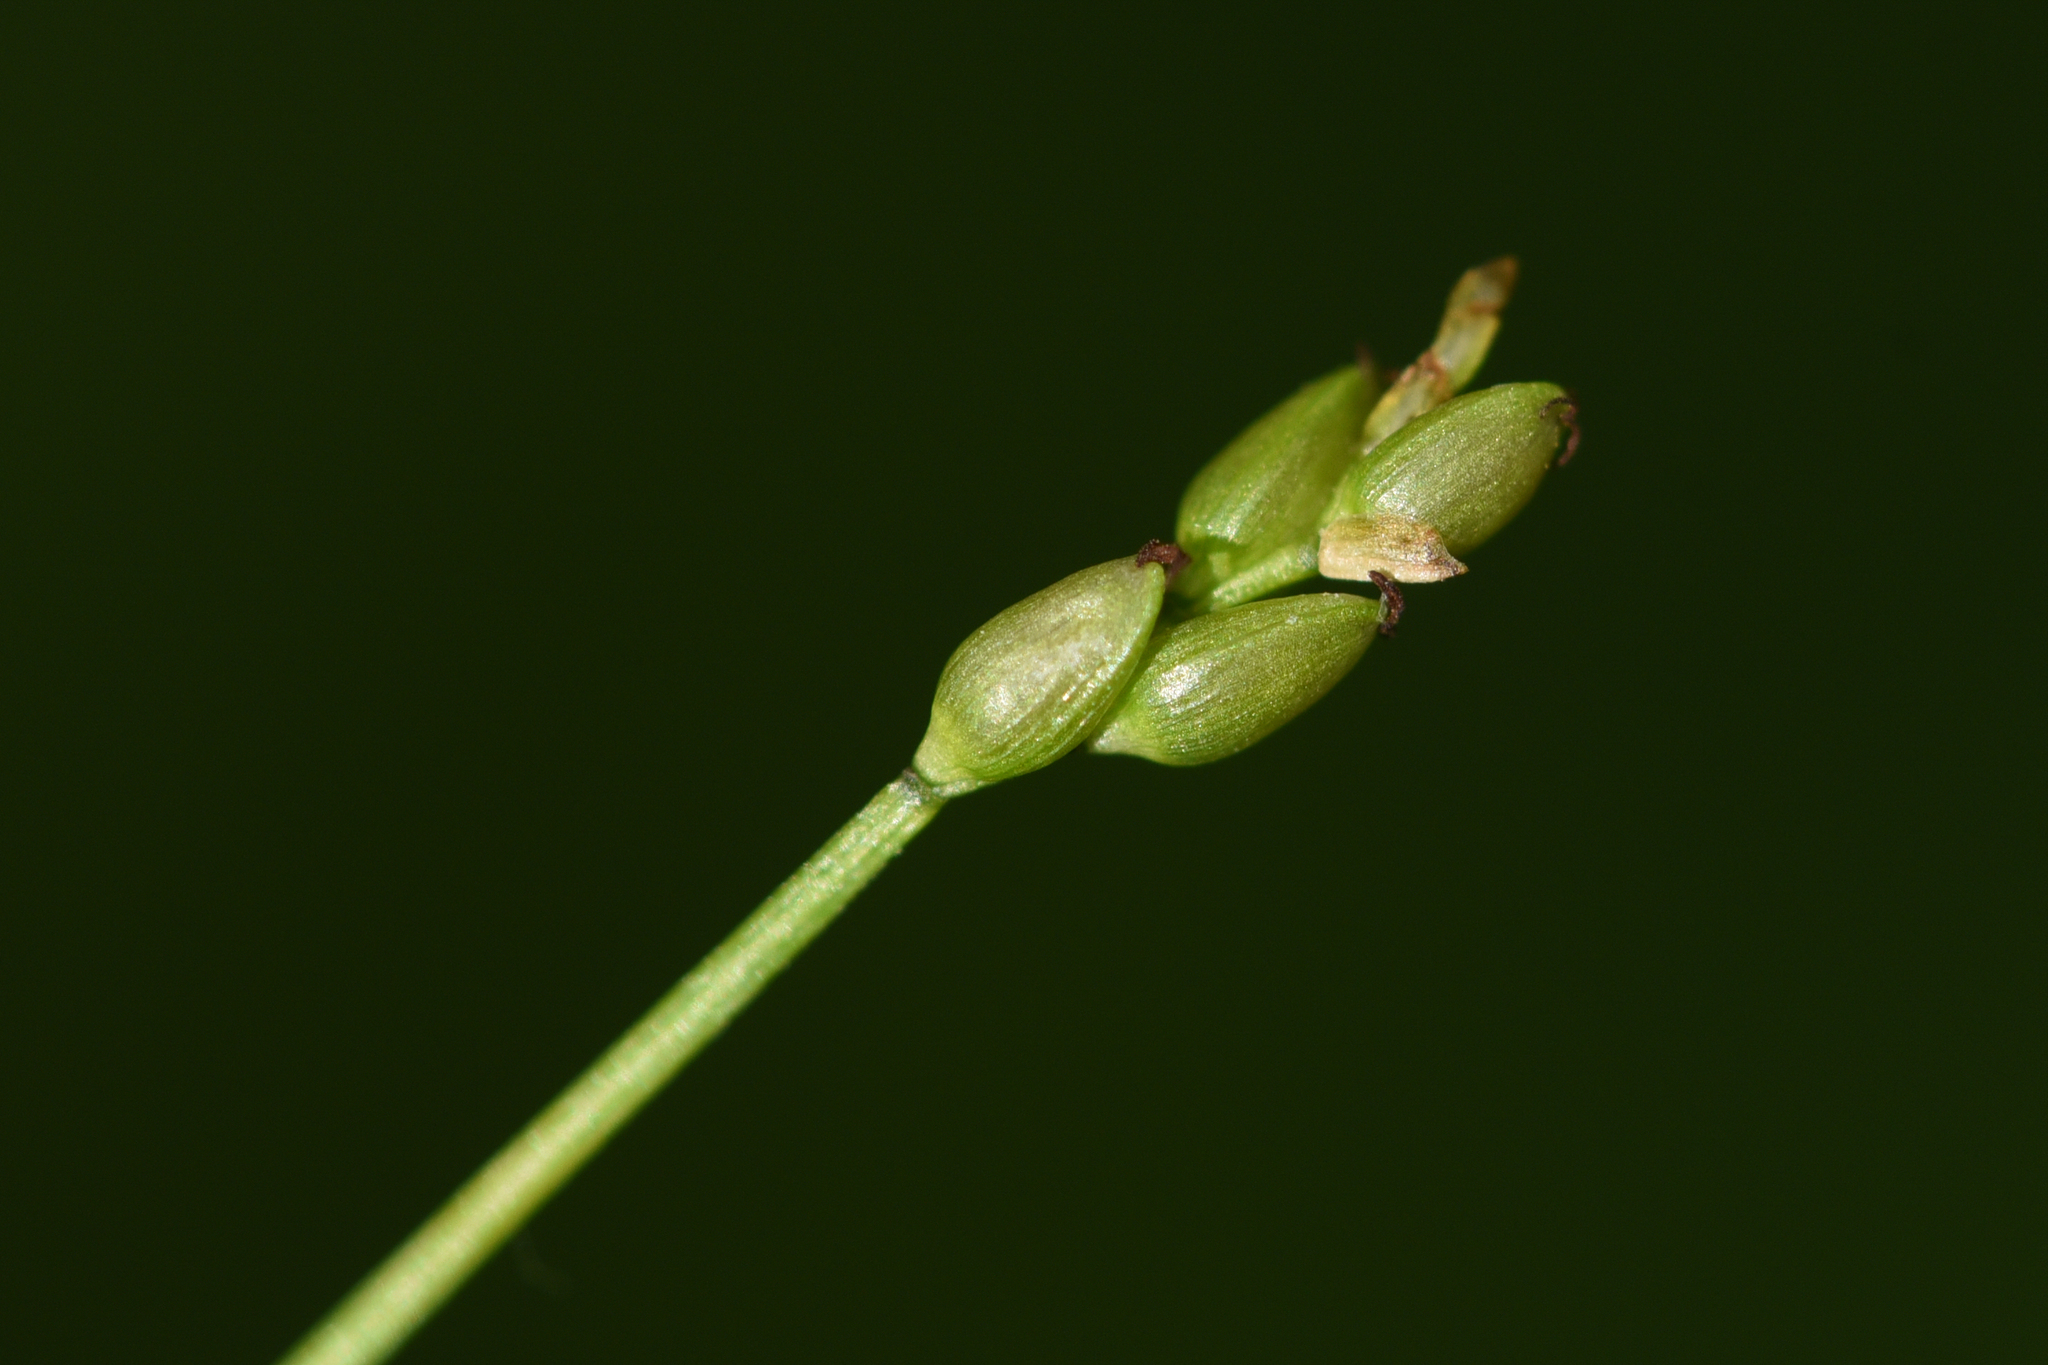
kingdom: Plantae
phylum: Tracheophyta
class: Liliopsida
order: Poales
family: Cyperaceae
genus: Carex
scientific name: Carex leptalea
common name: Bristly-stalked sedge
